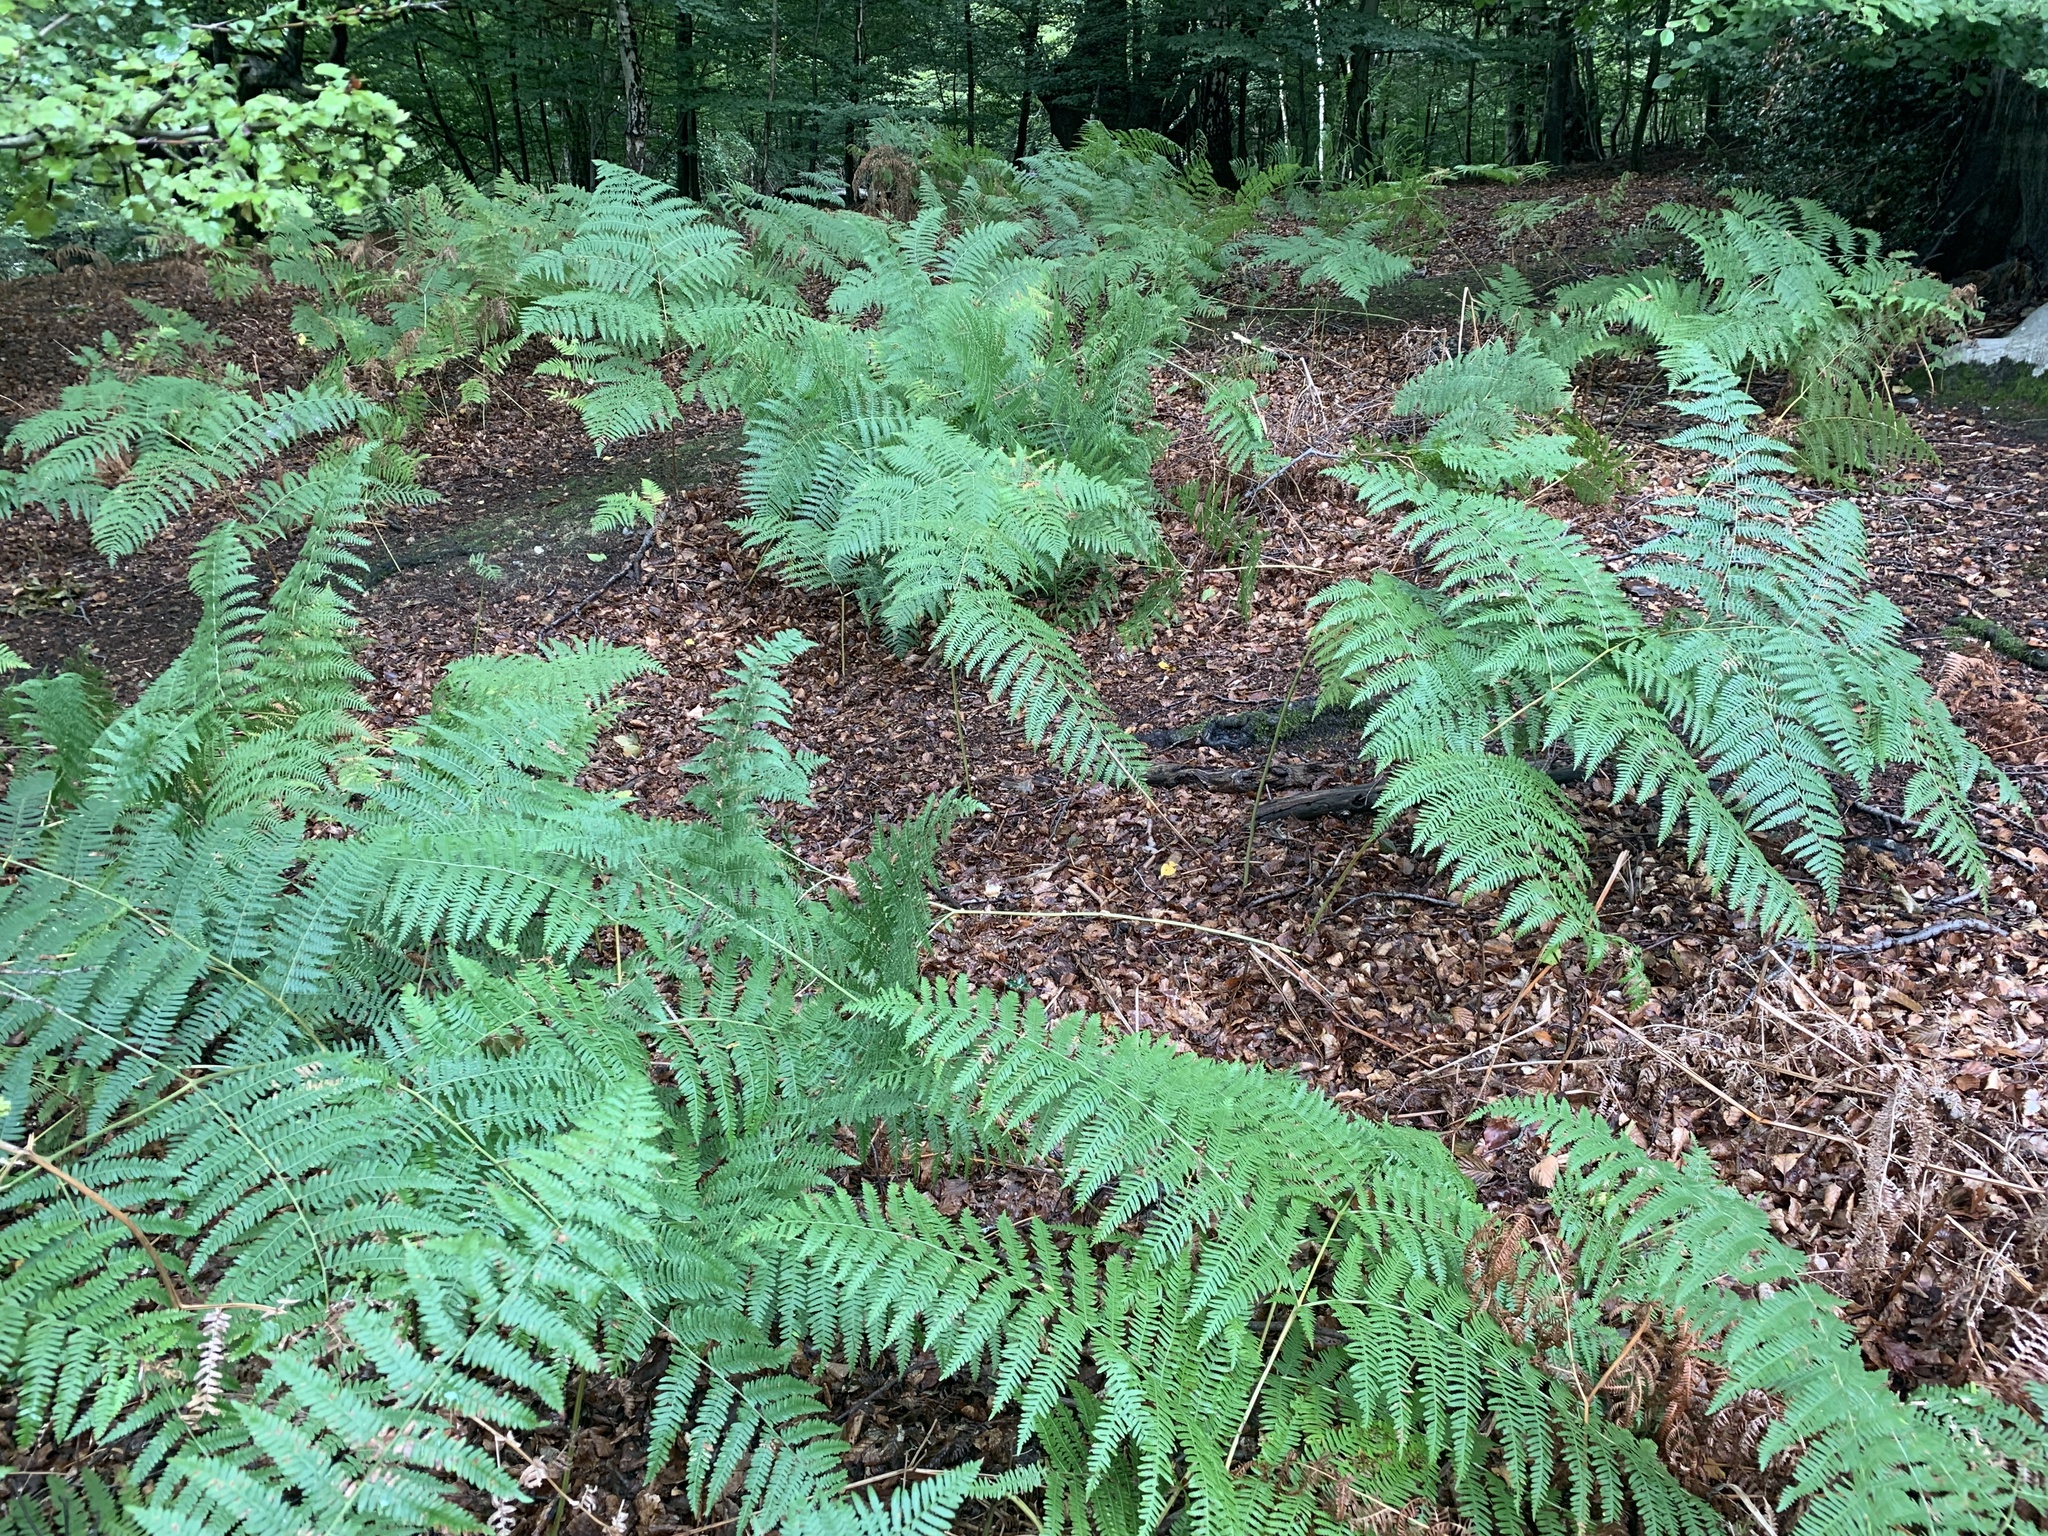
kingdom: Plantae
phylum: Tracheophyta
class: Polypodiopsida
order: Polypodiales
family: Dennstaedtiaceae
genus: Pteridium
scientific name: Pteridium aquilinum
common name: Bracken
